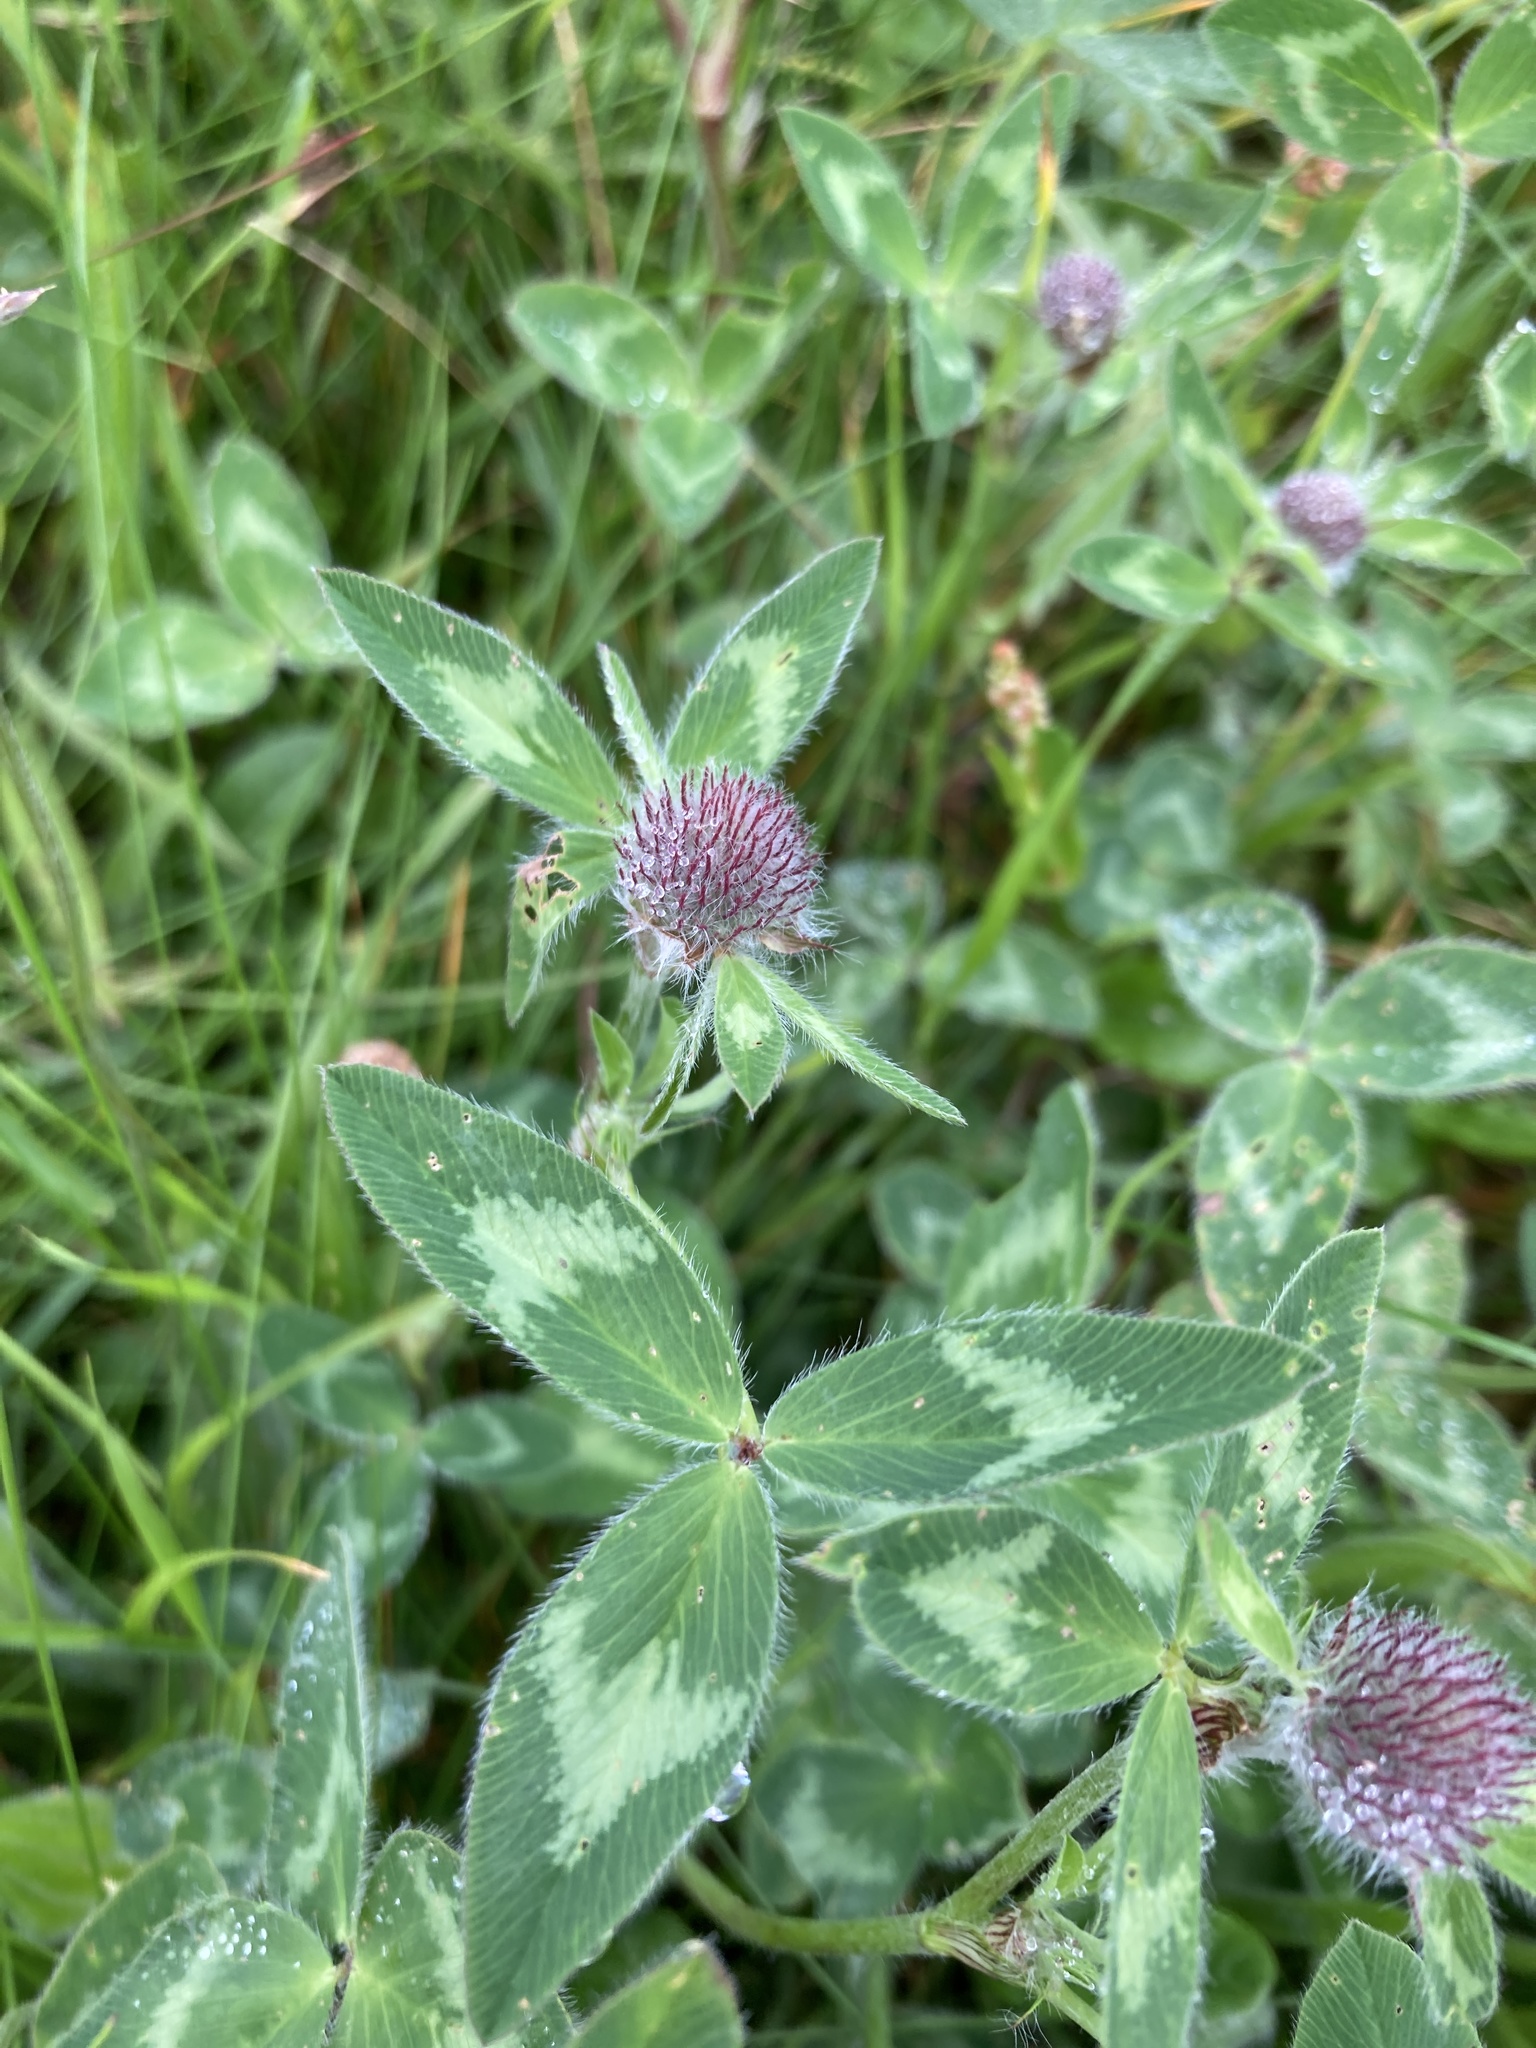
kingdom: Plantae
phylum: Tracheophyta
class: Magnoliopsida
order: Fabales
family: Fabaceae
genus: Trifolium
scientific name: Trifolium pratense
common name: Red clover
